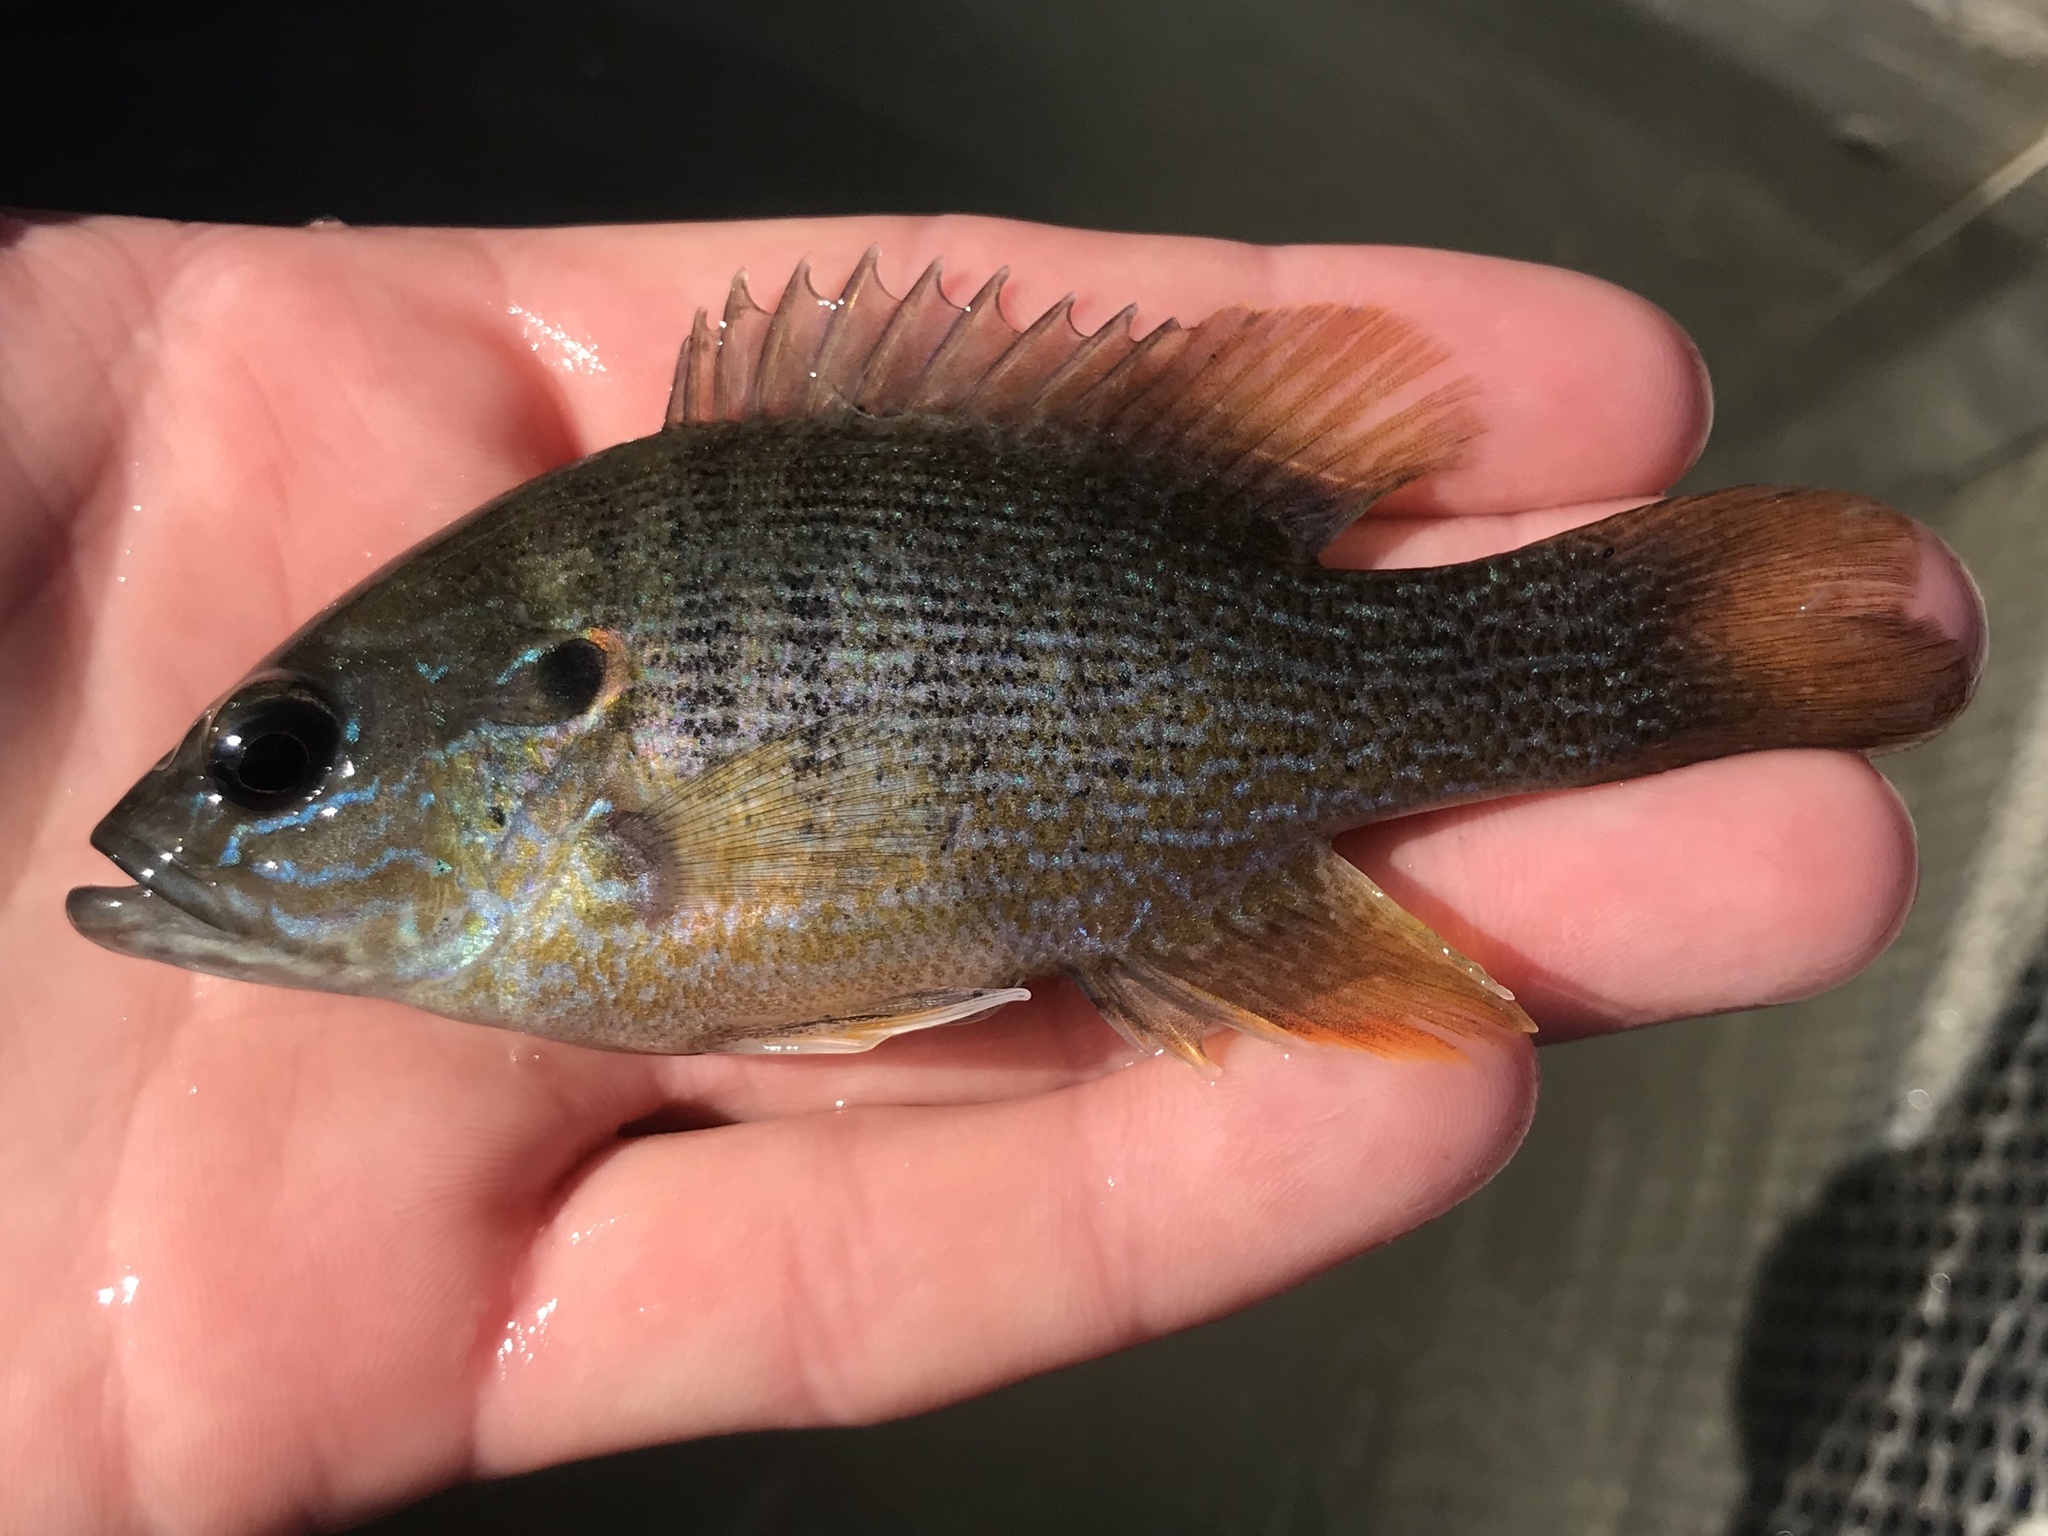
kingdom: Animalia
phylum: Chordata
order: Perciformes
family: Centrarchidae
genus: Lepomis
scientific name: Lepomis cyanellus
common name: Green sunfish
